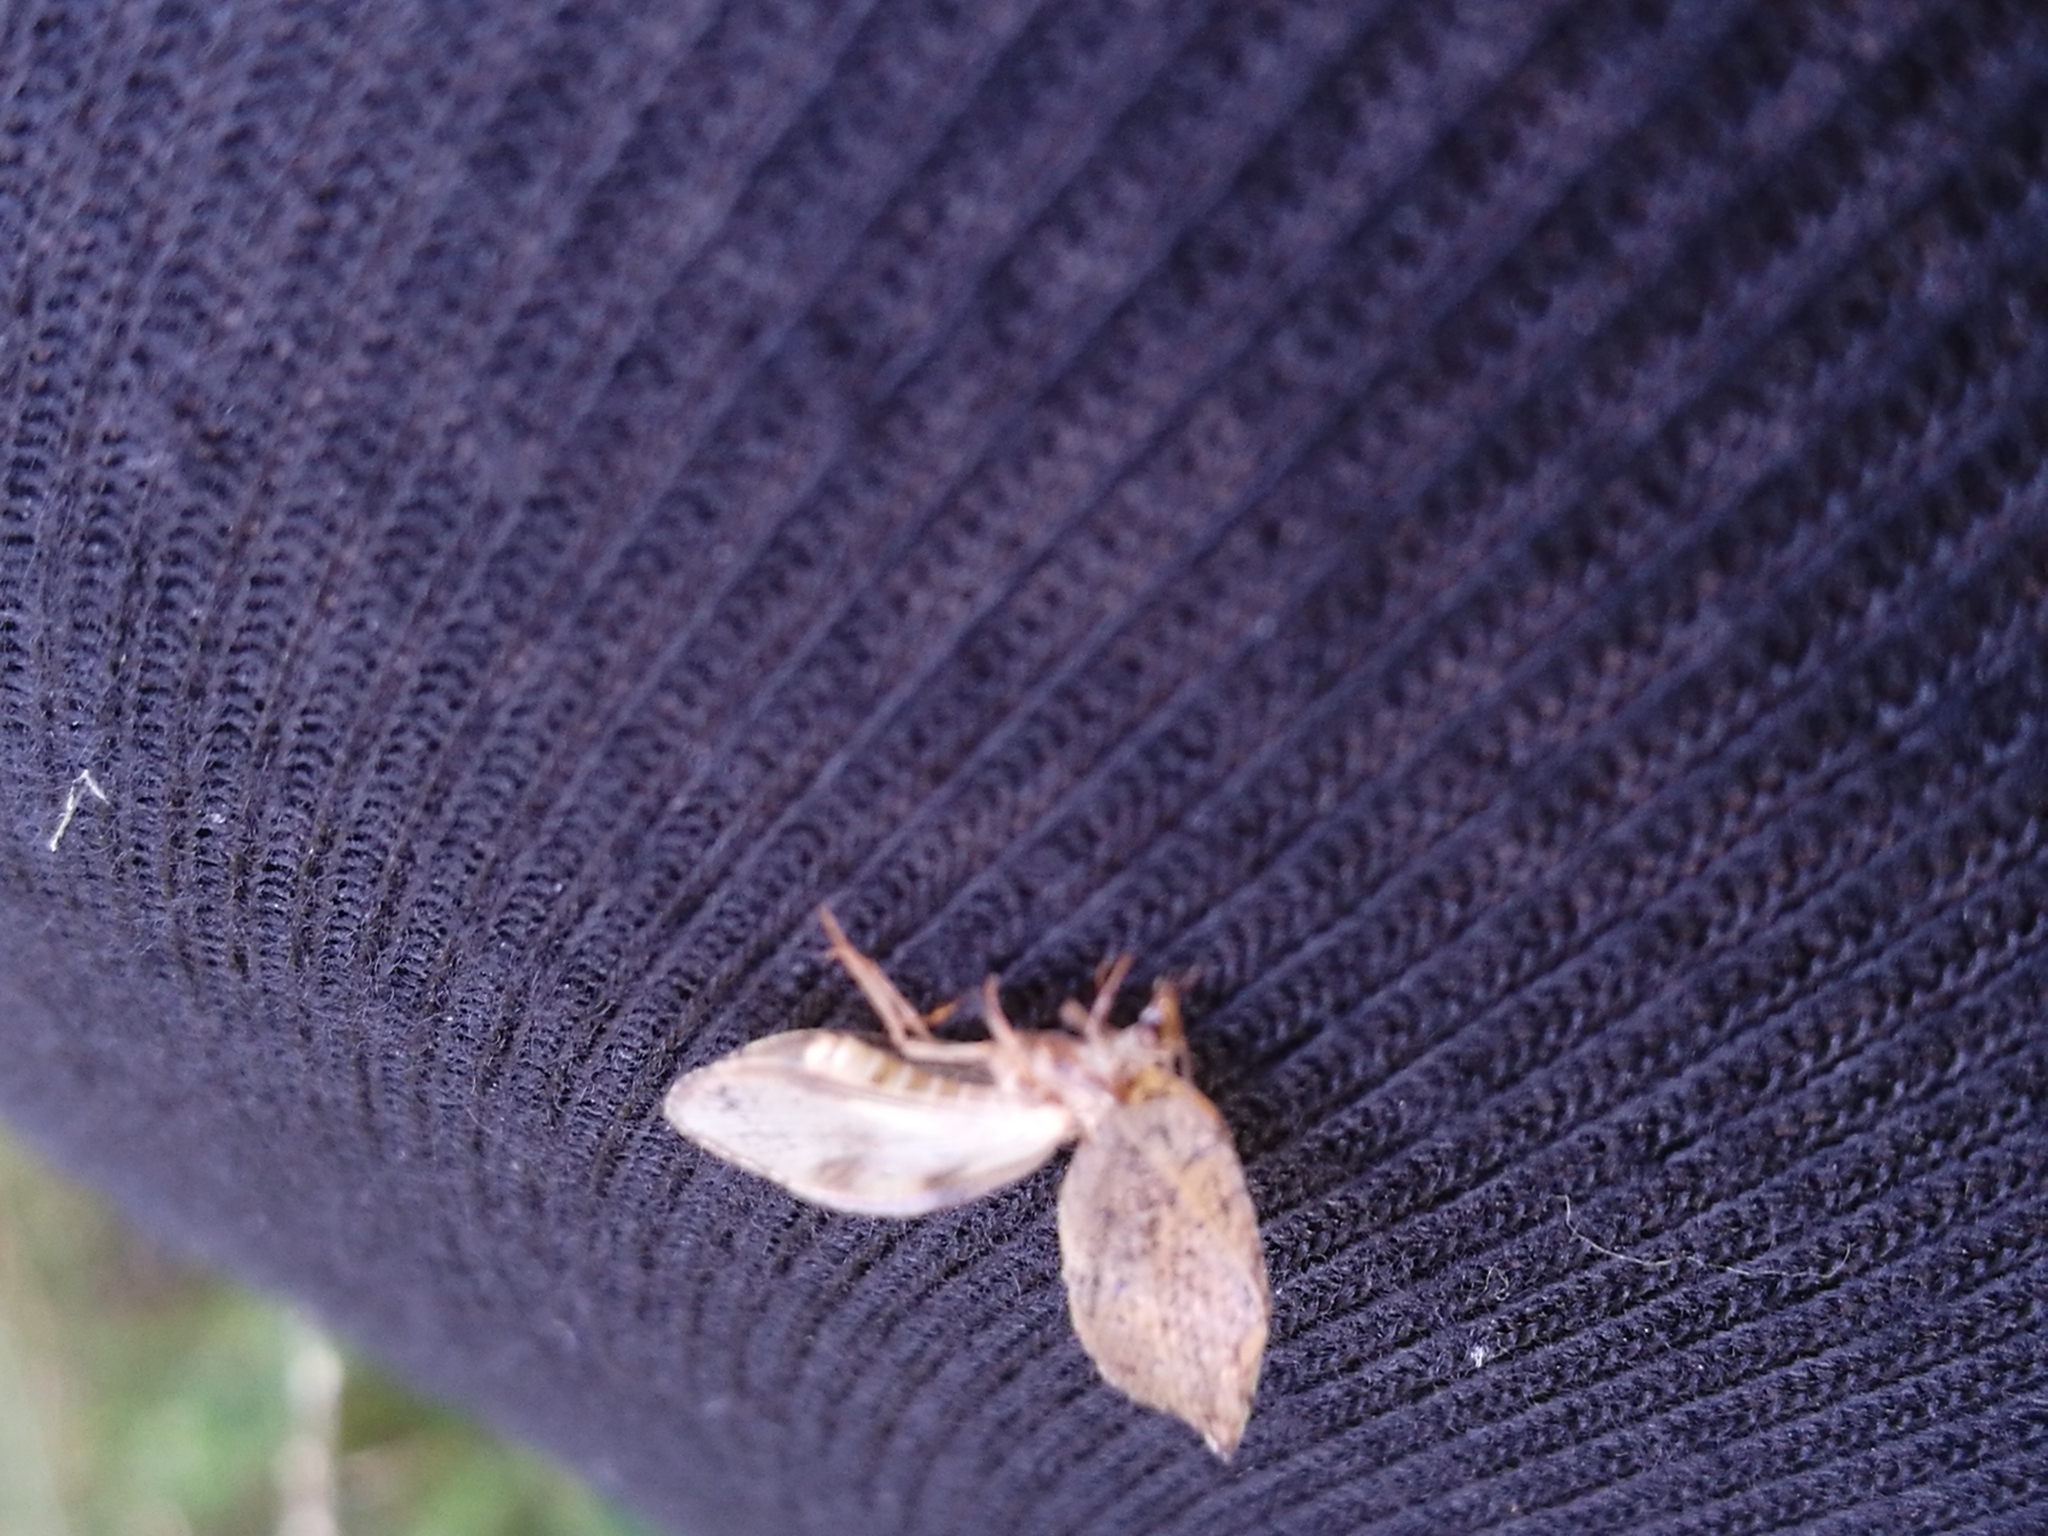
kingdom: Animalia
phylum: Arthropoda
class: Insecta
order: Neuroptera
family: Hemerobiidae
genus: Drepanacra
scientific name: Drepanacra binocula
